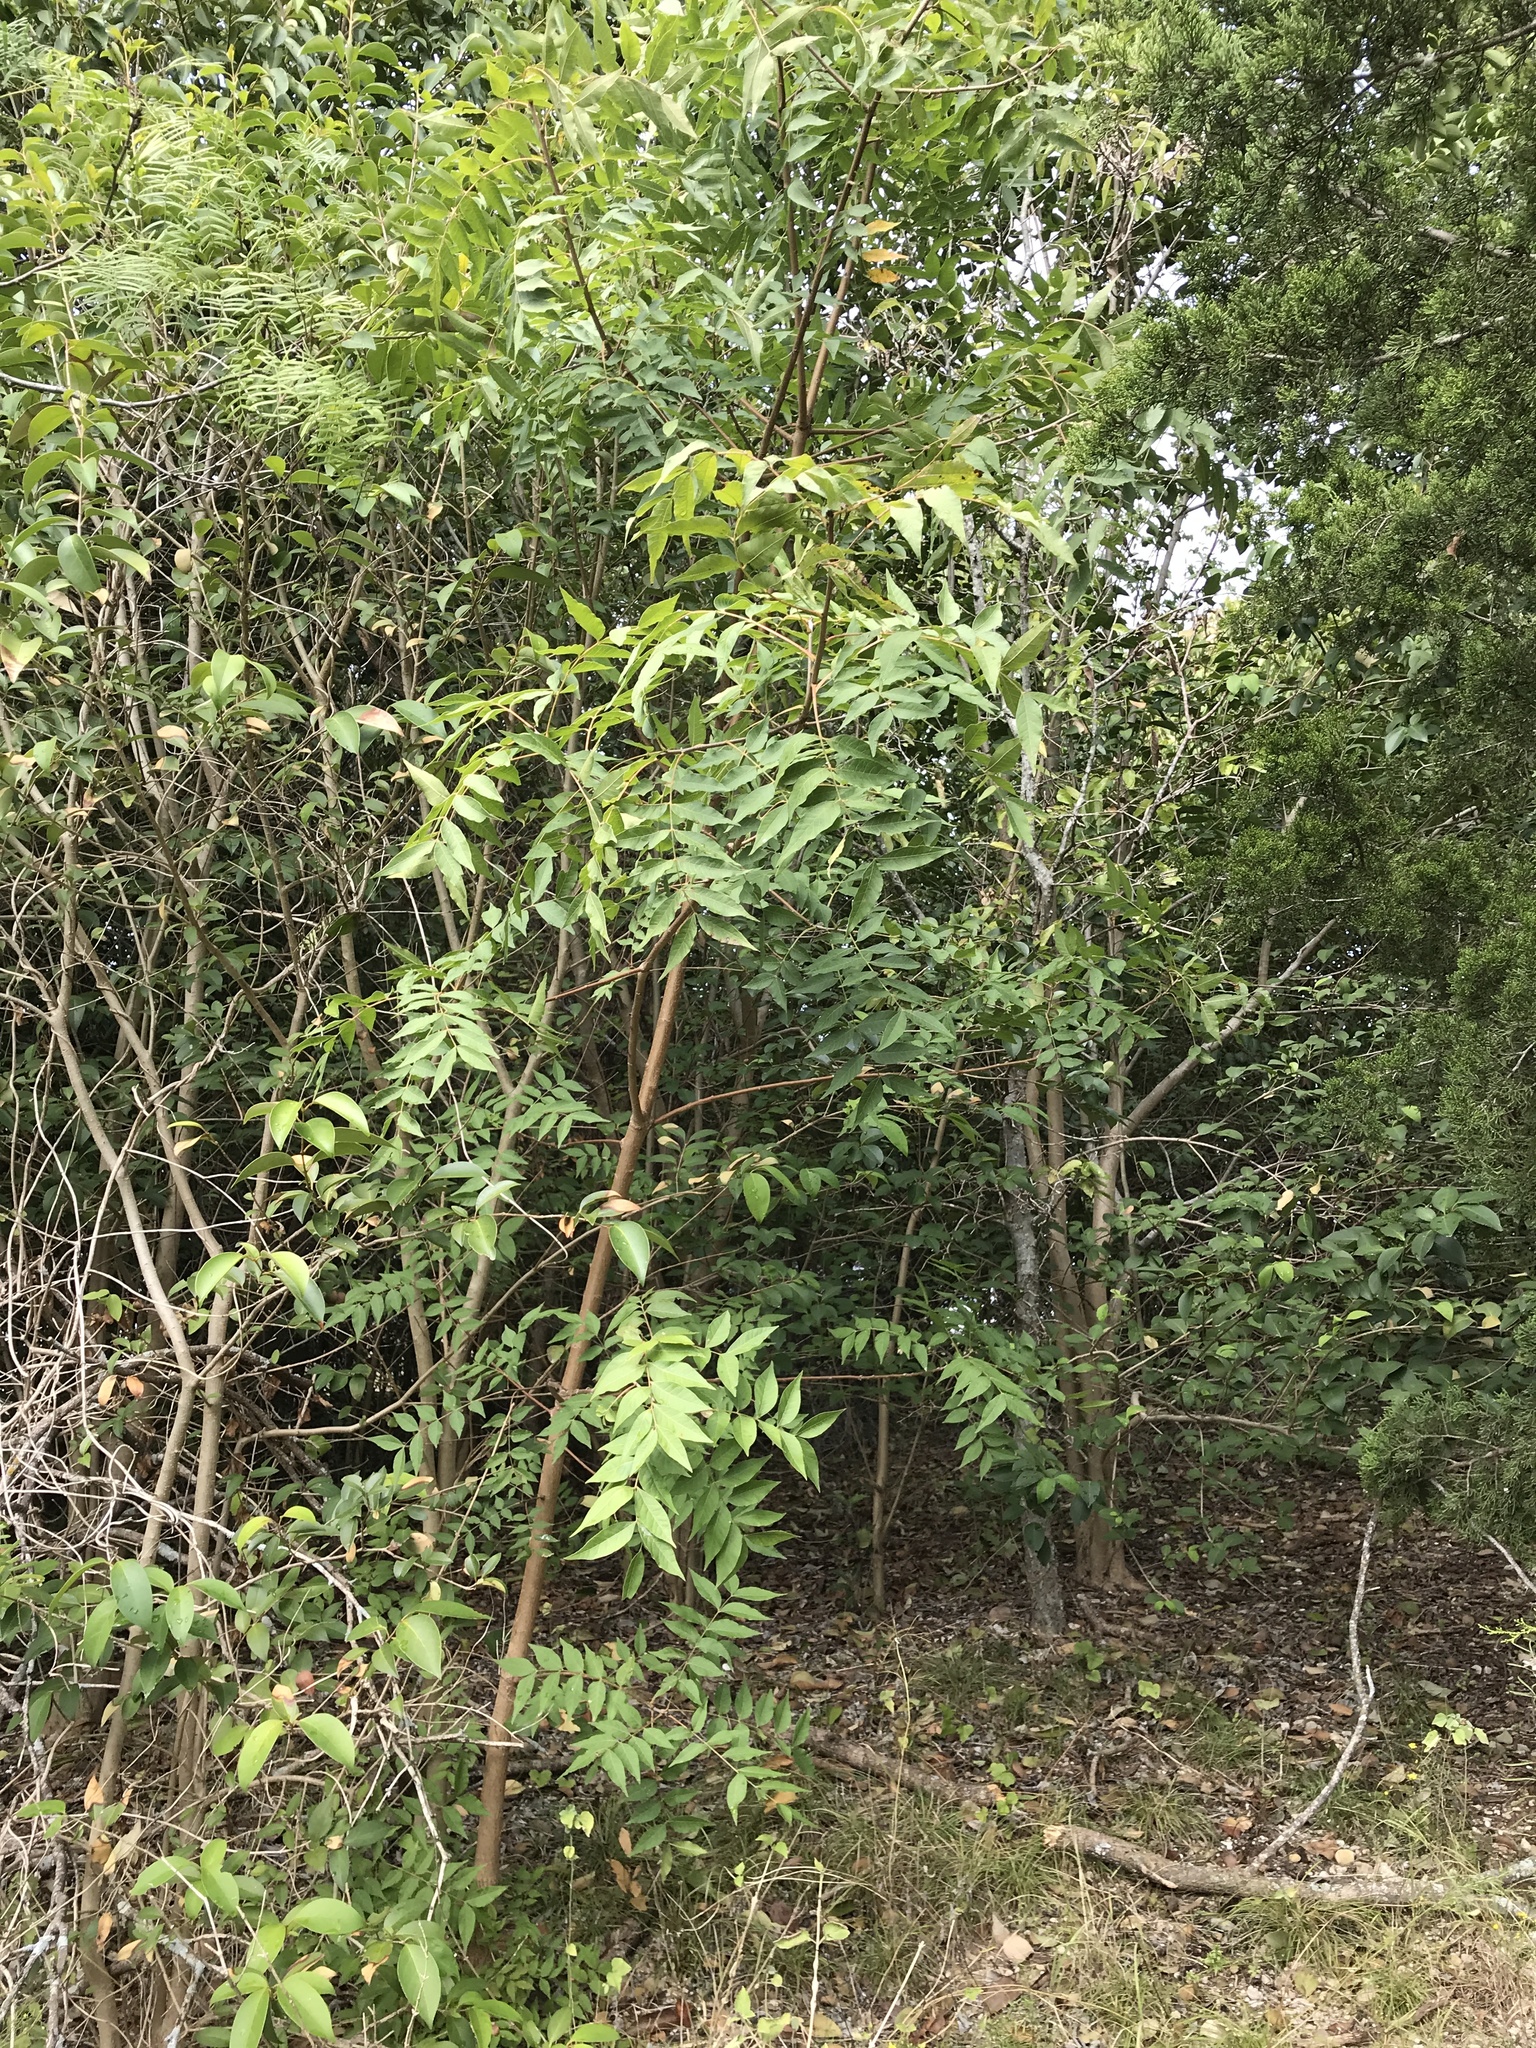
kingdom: Plantae
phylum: Tracheophyta
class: Magnoliopsida
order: Sapindales
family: Anacardiaceae
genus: Pistacia
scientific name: Pistacia chinensis
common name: Chinese pistache
